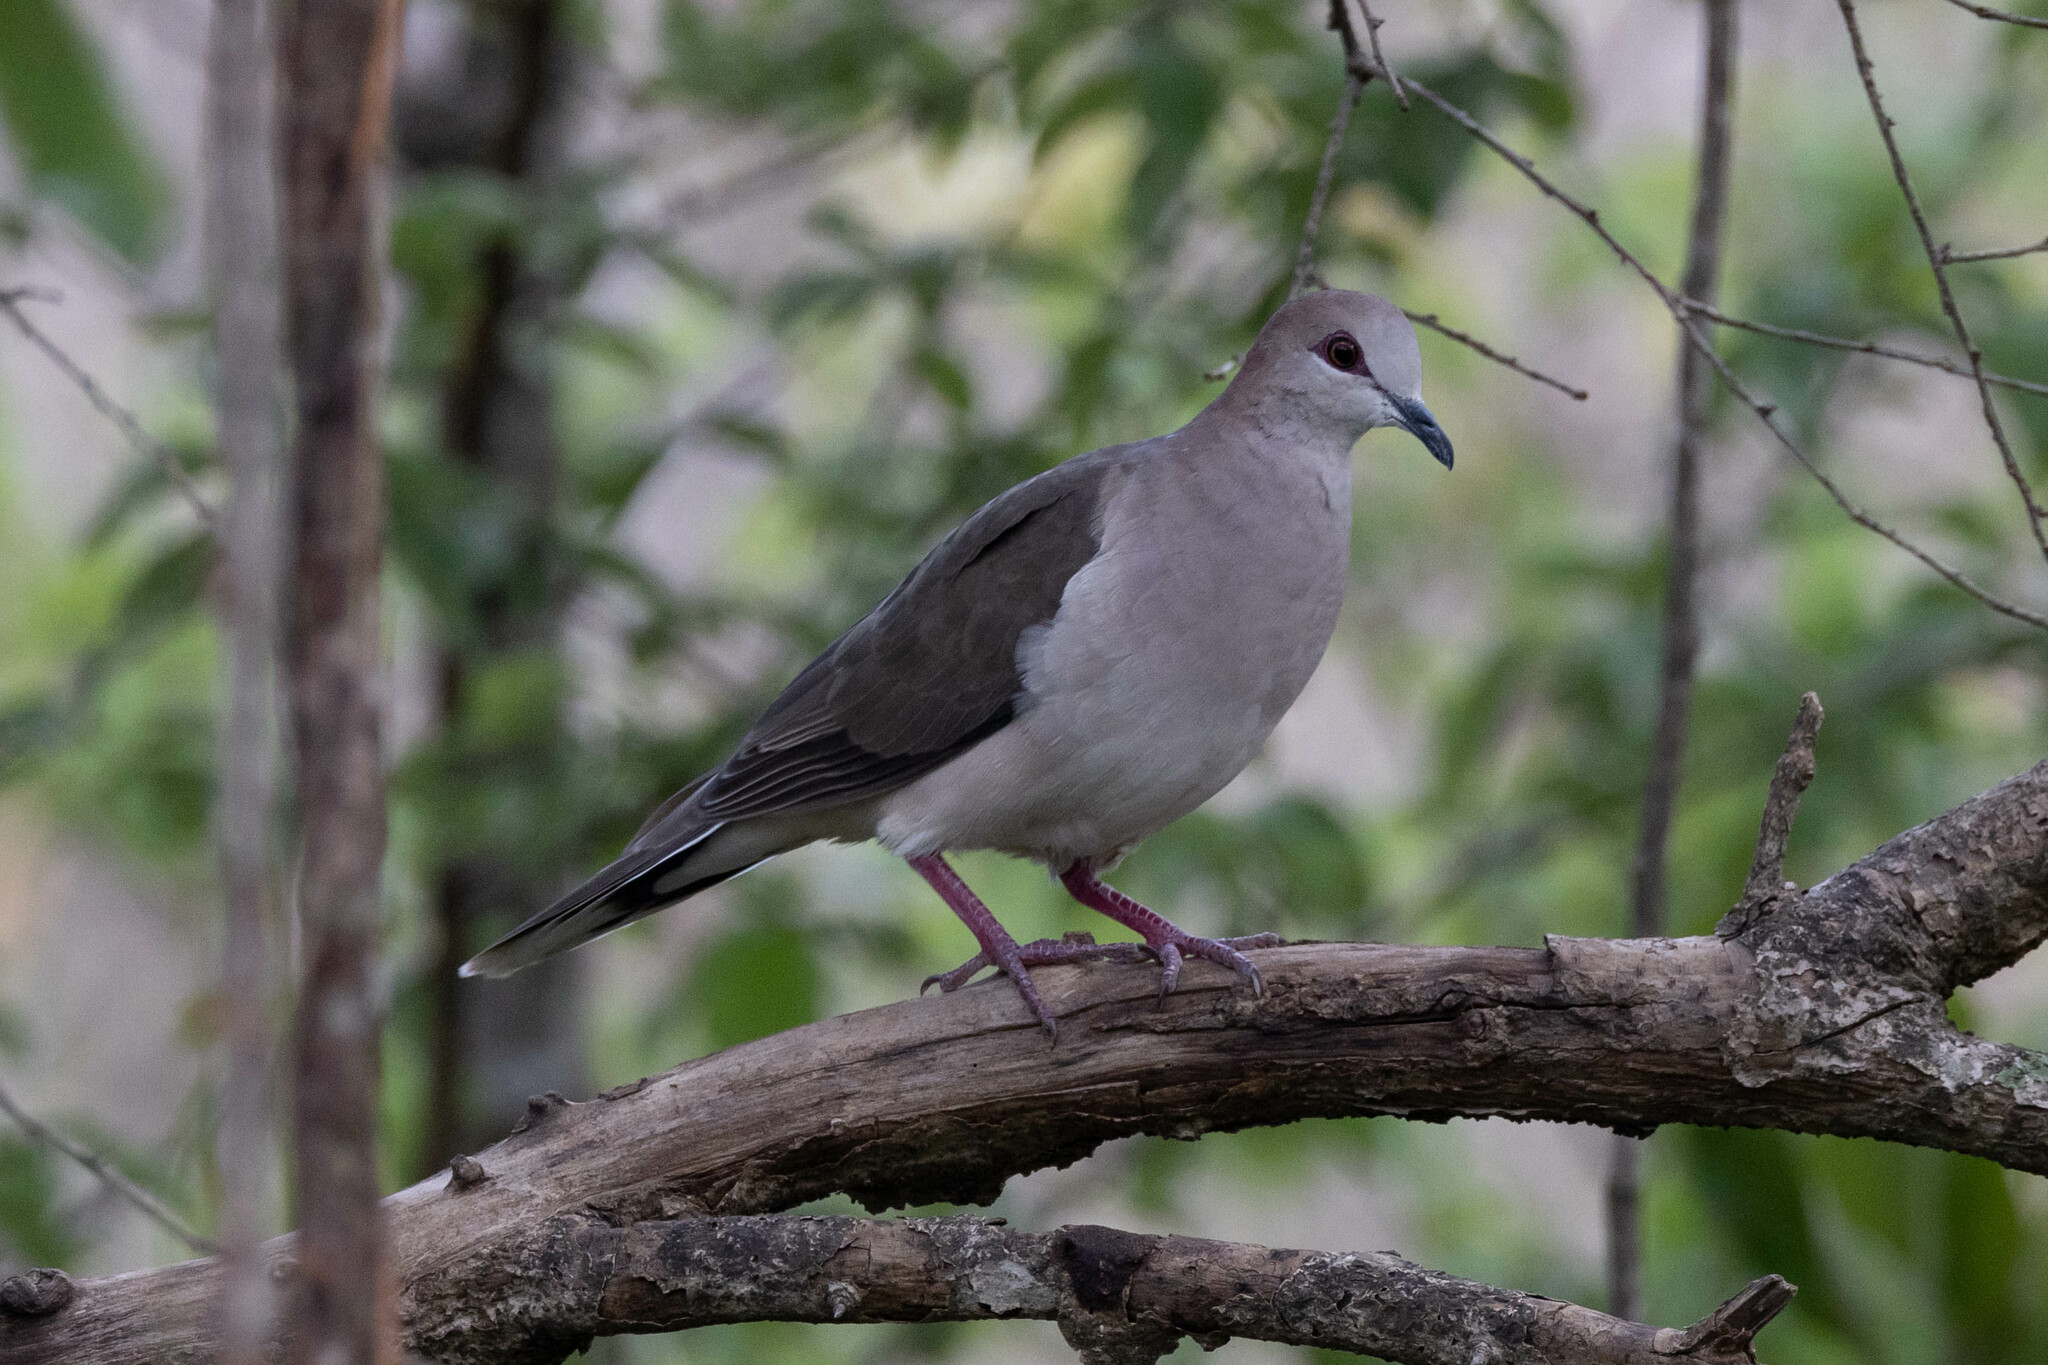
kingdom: Animalia
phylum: Chordata
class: Aves
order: Columbiformes
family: Columbidae
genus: Leptotila
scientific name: Leptotila verreauxi
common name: White-tipped dove
